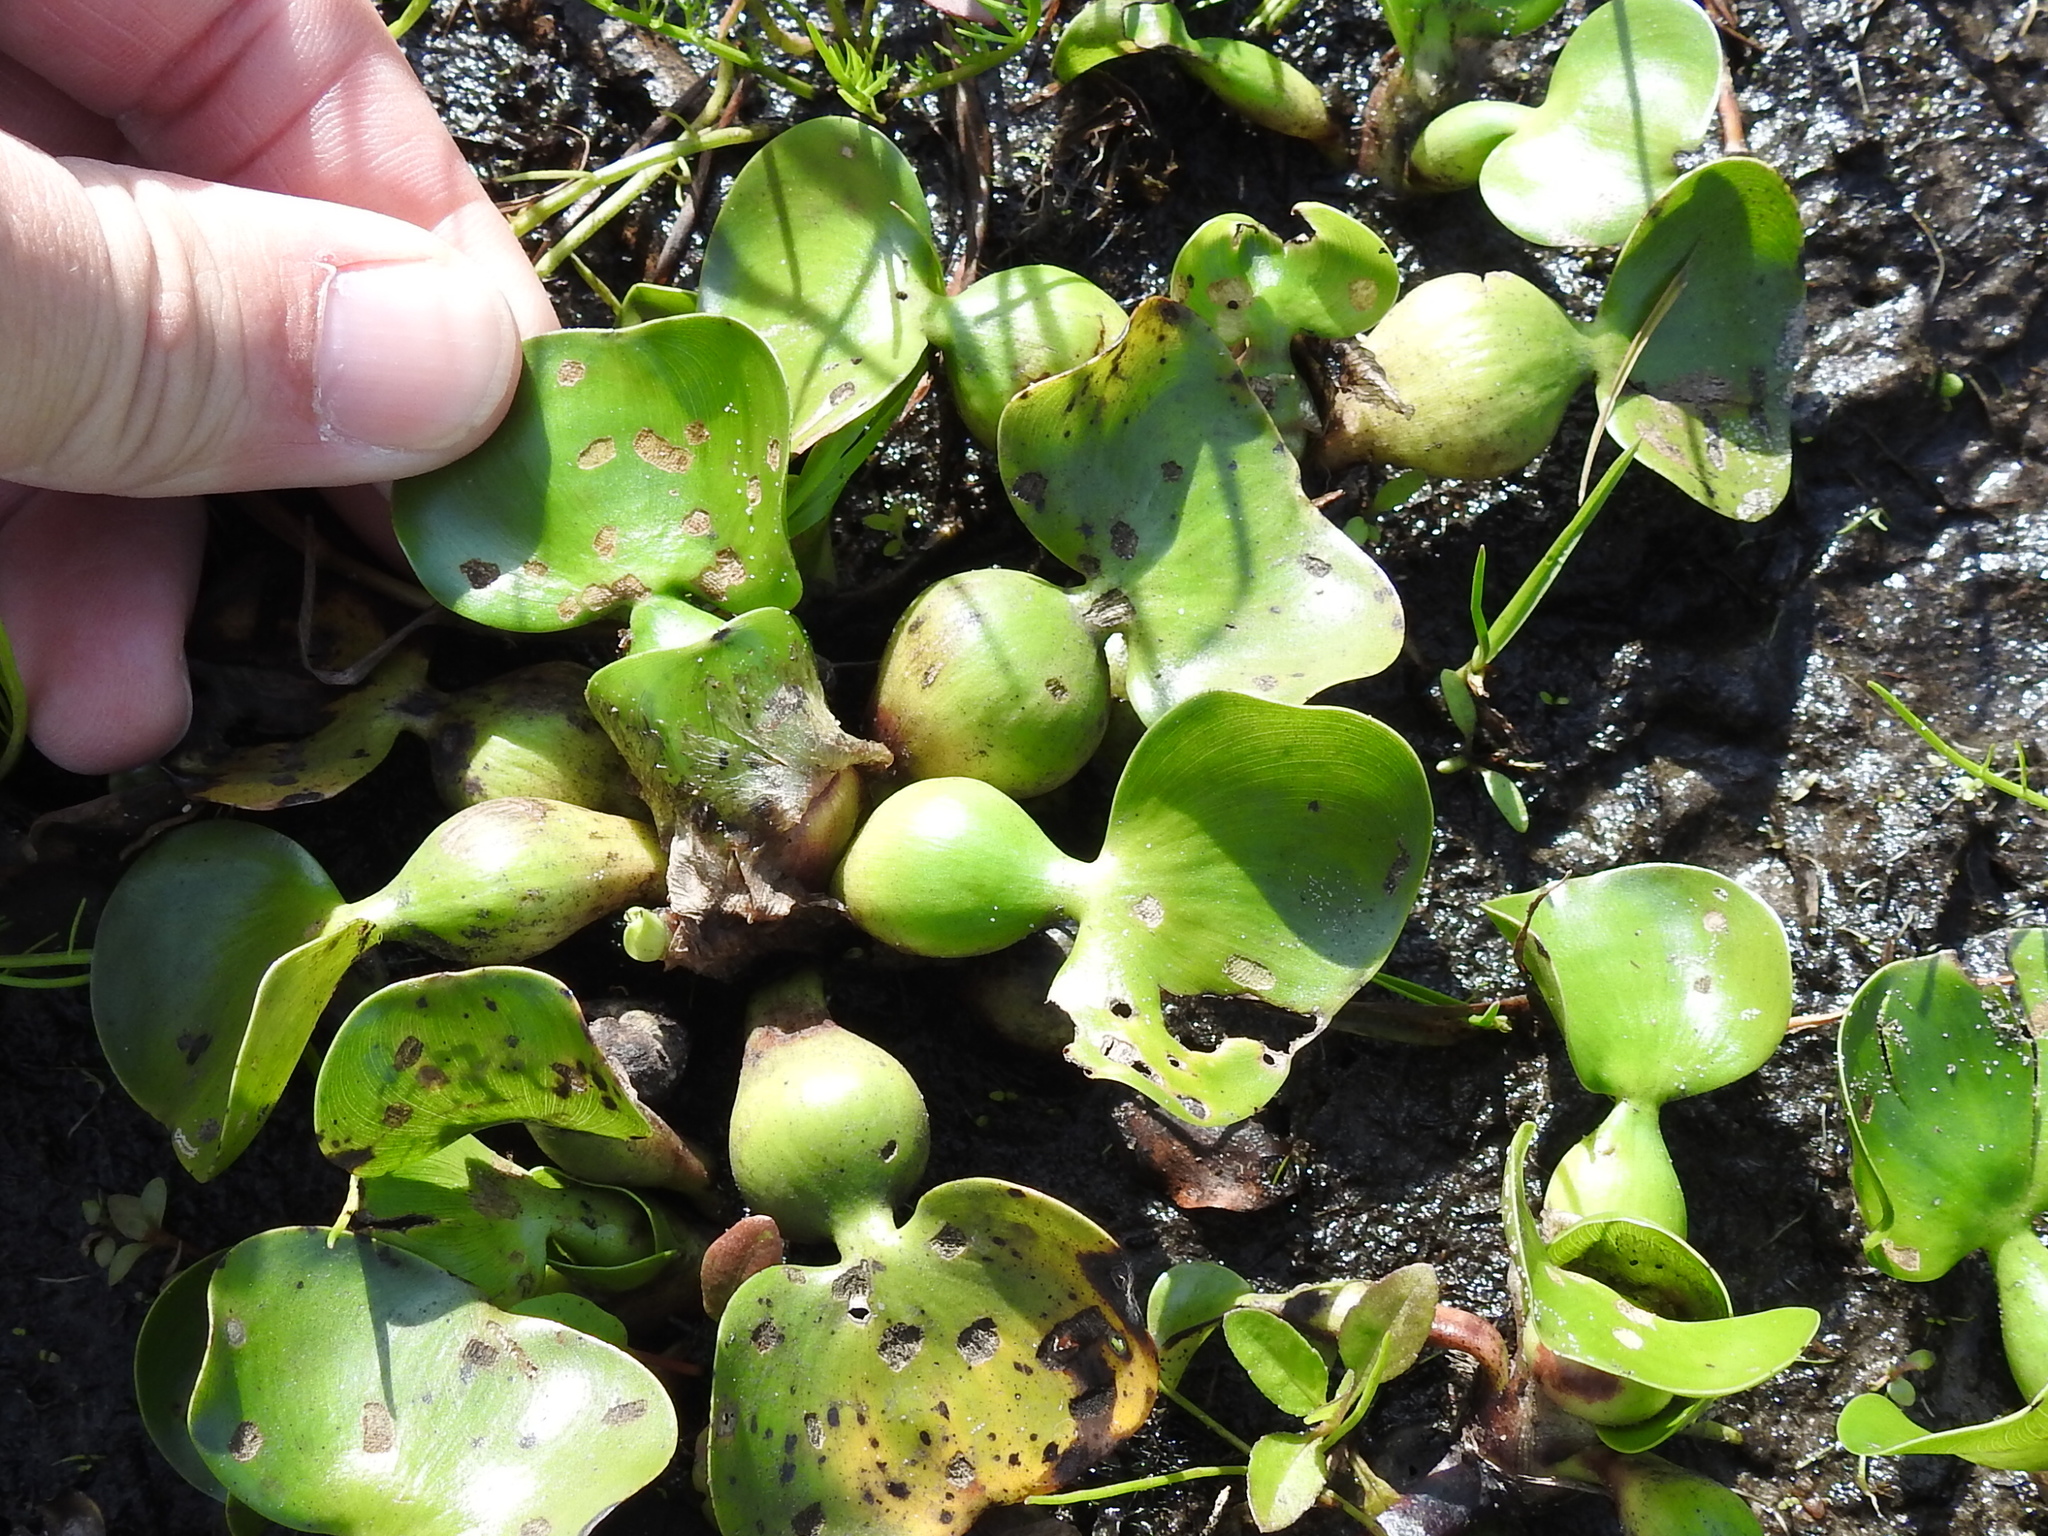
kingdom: Plantae
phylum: Tracheophyta
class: Liliopsida
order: Commelinales
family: Pontederiaceae
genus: Pontederia
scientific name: Pontederia crassipes
